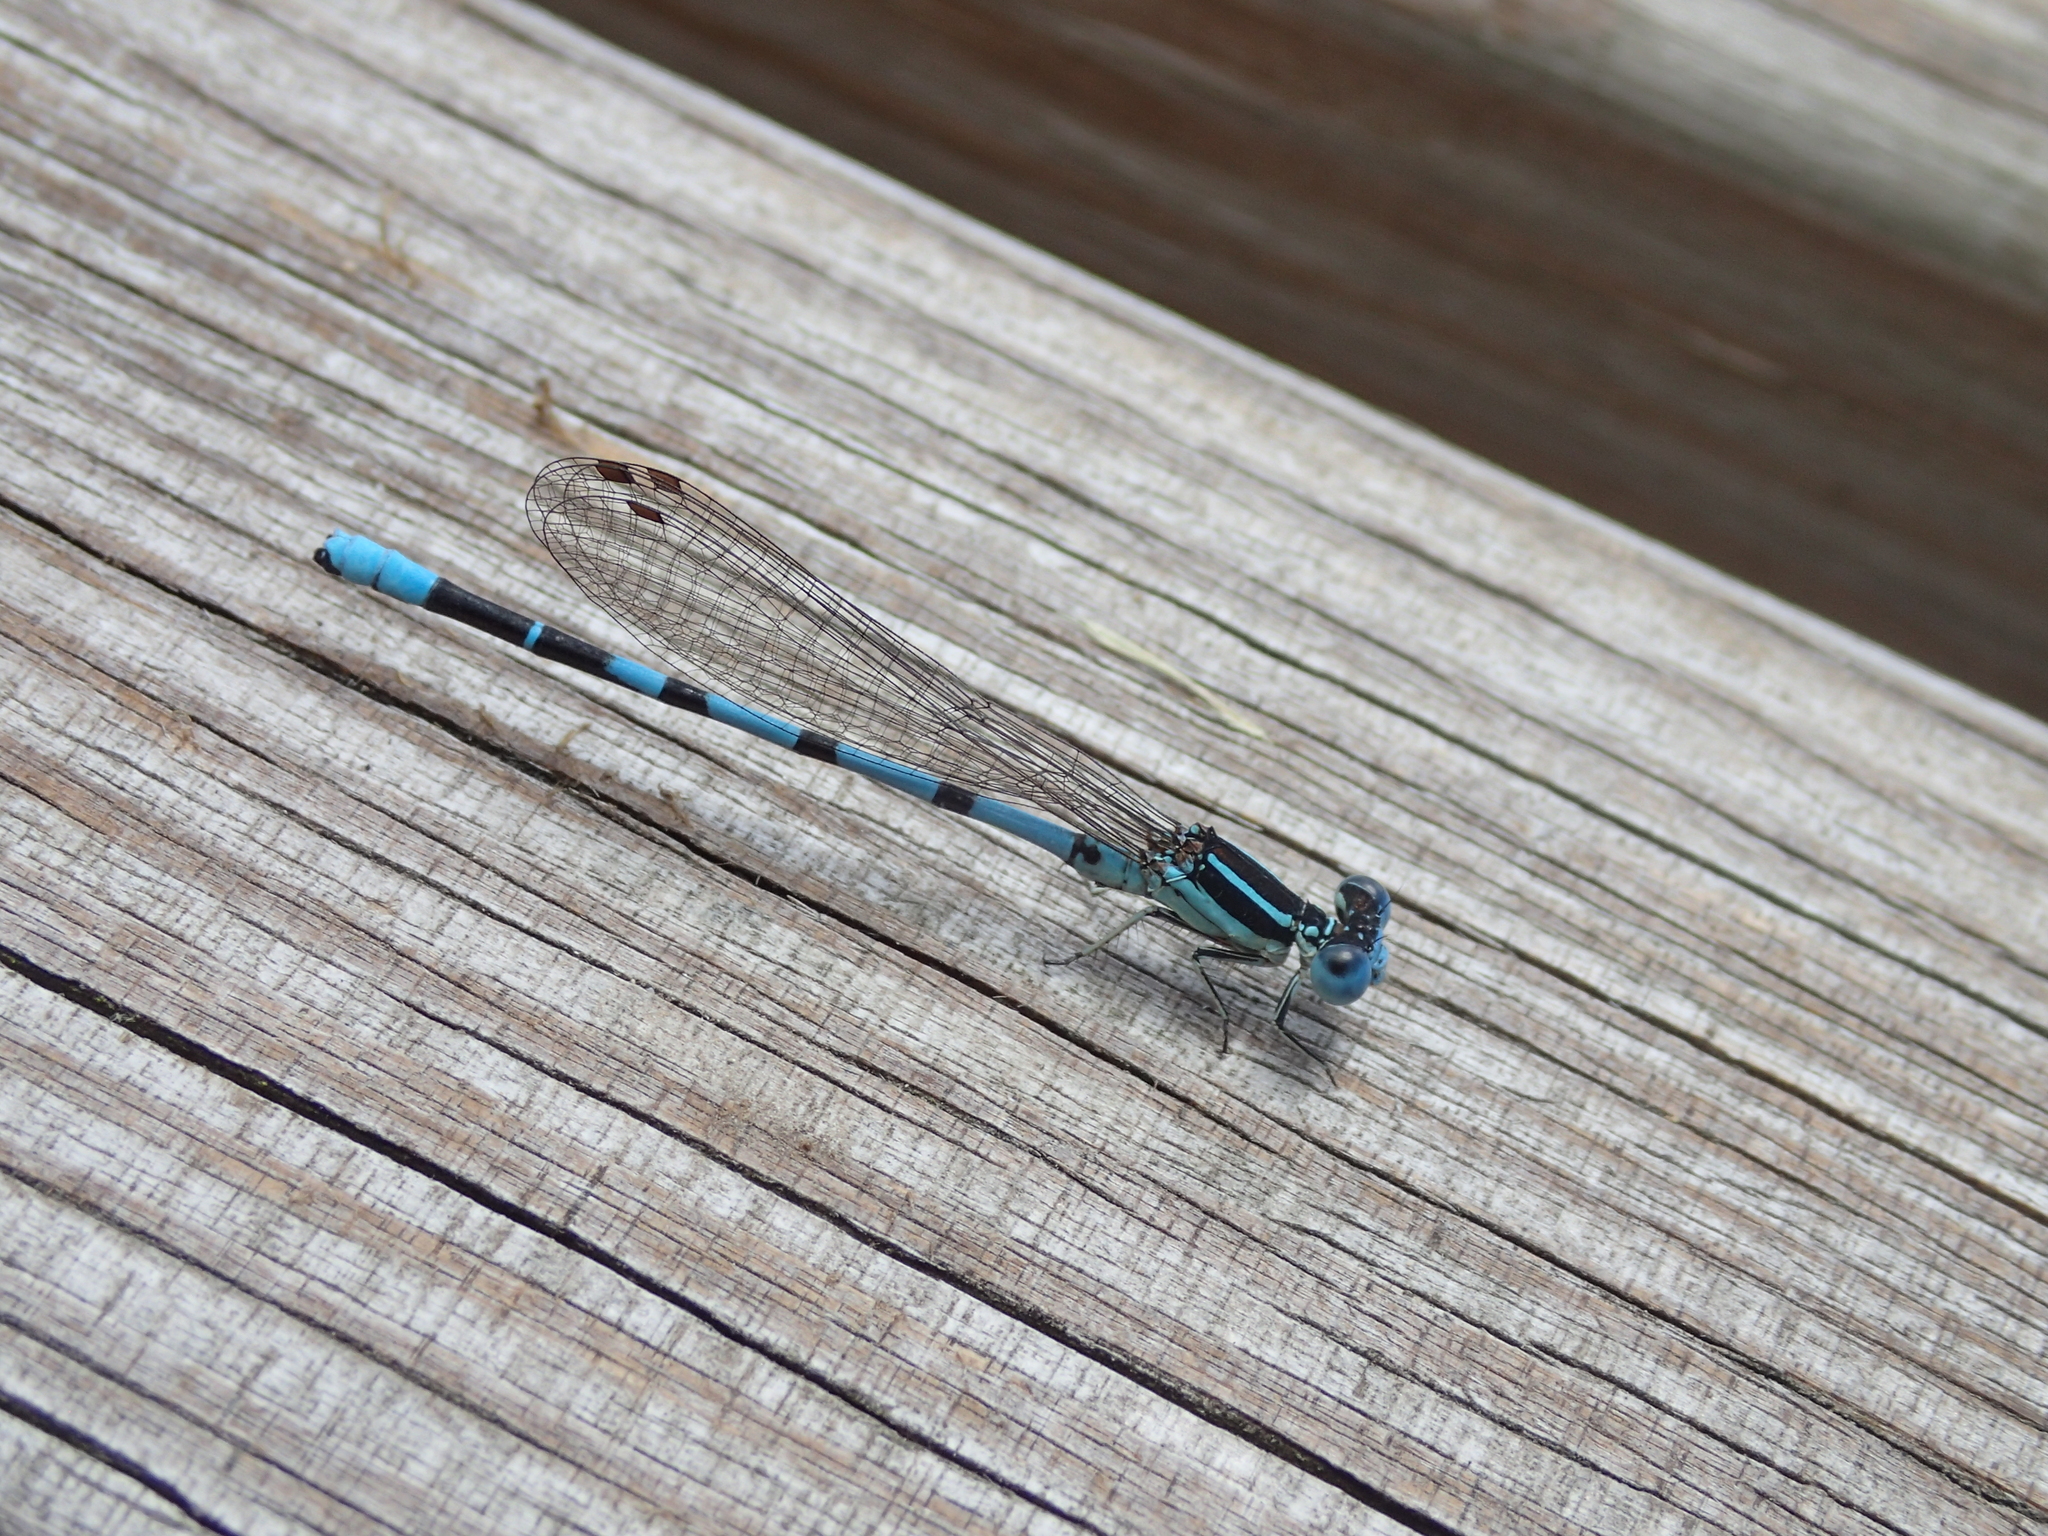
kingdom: Animalia
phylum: Arthropoda
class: Insecta
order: Odonata
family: Coenagrionidae
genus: Argia
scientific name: Argia bipunctulata
